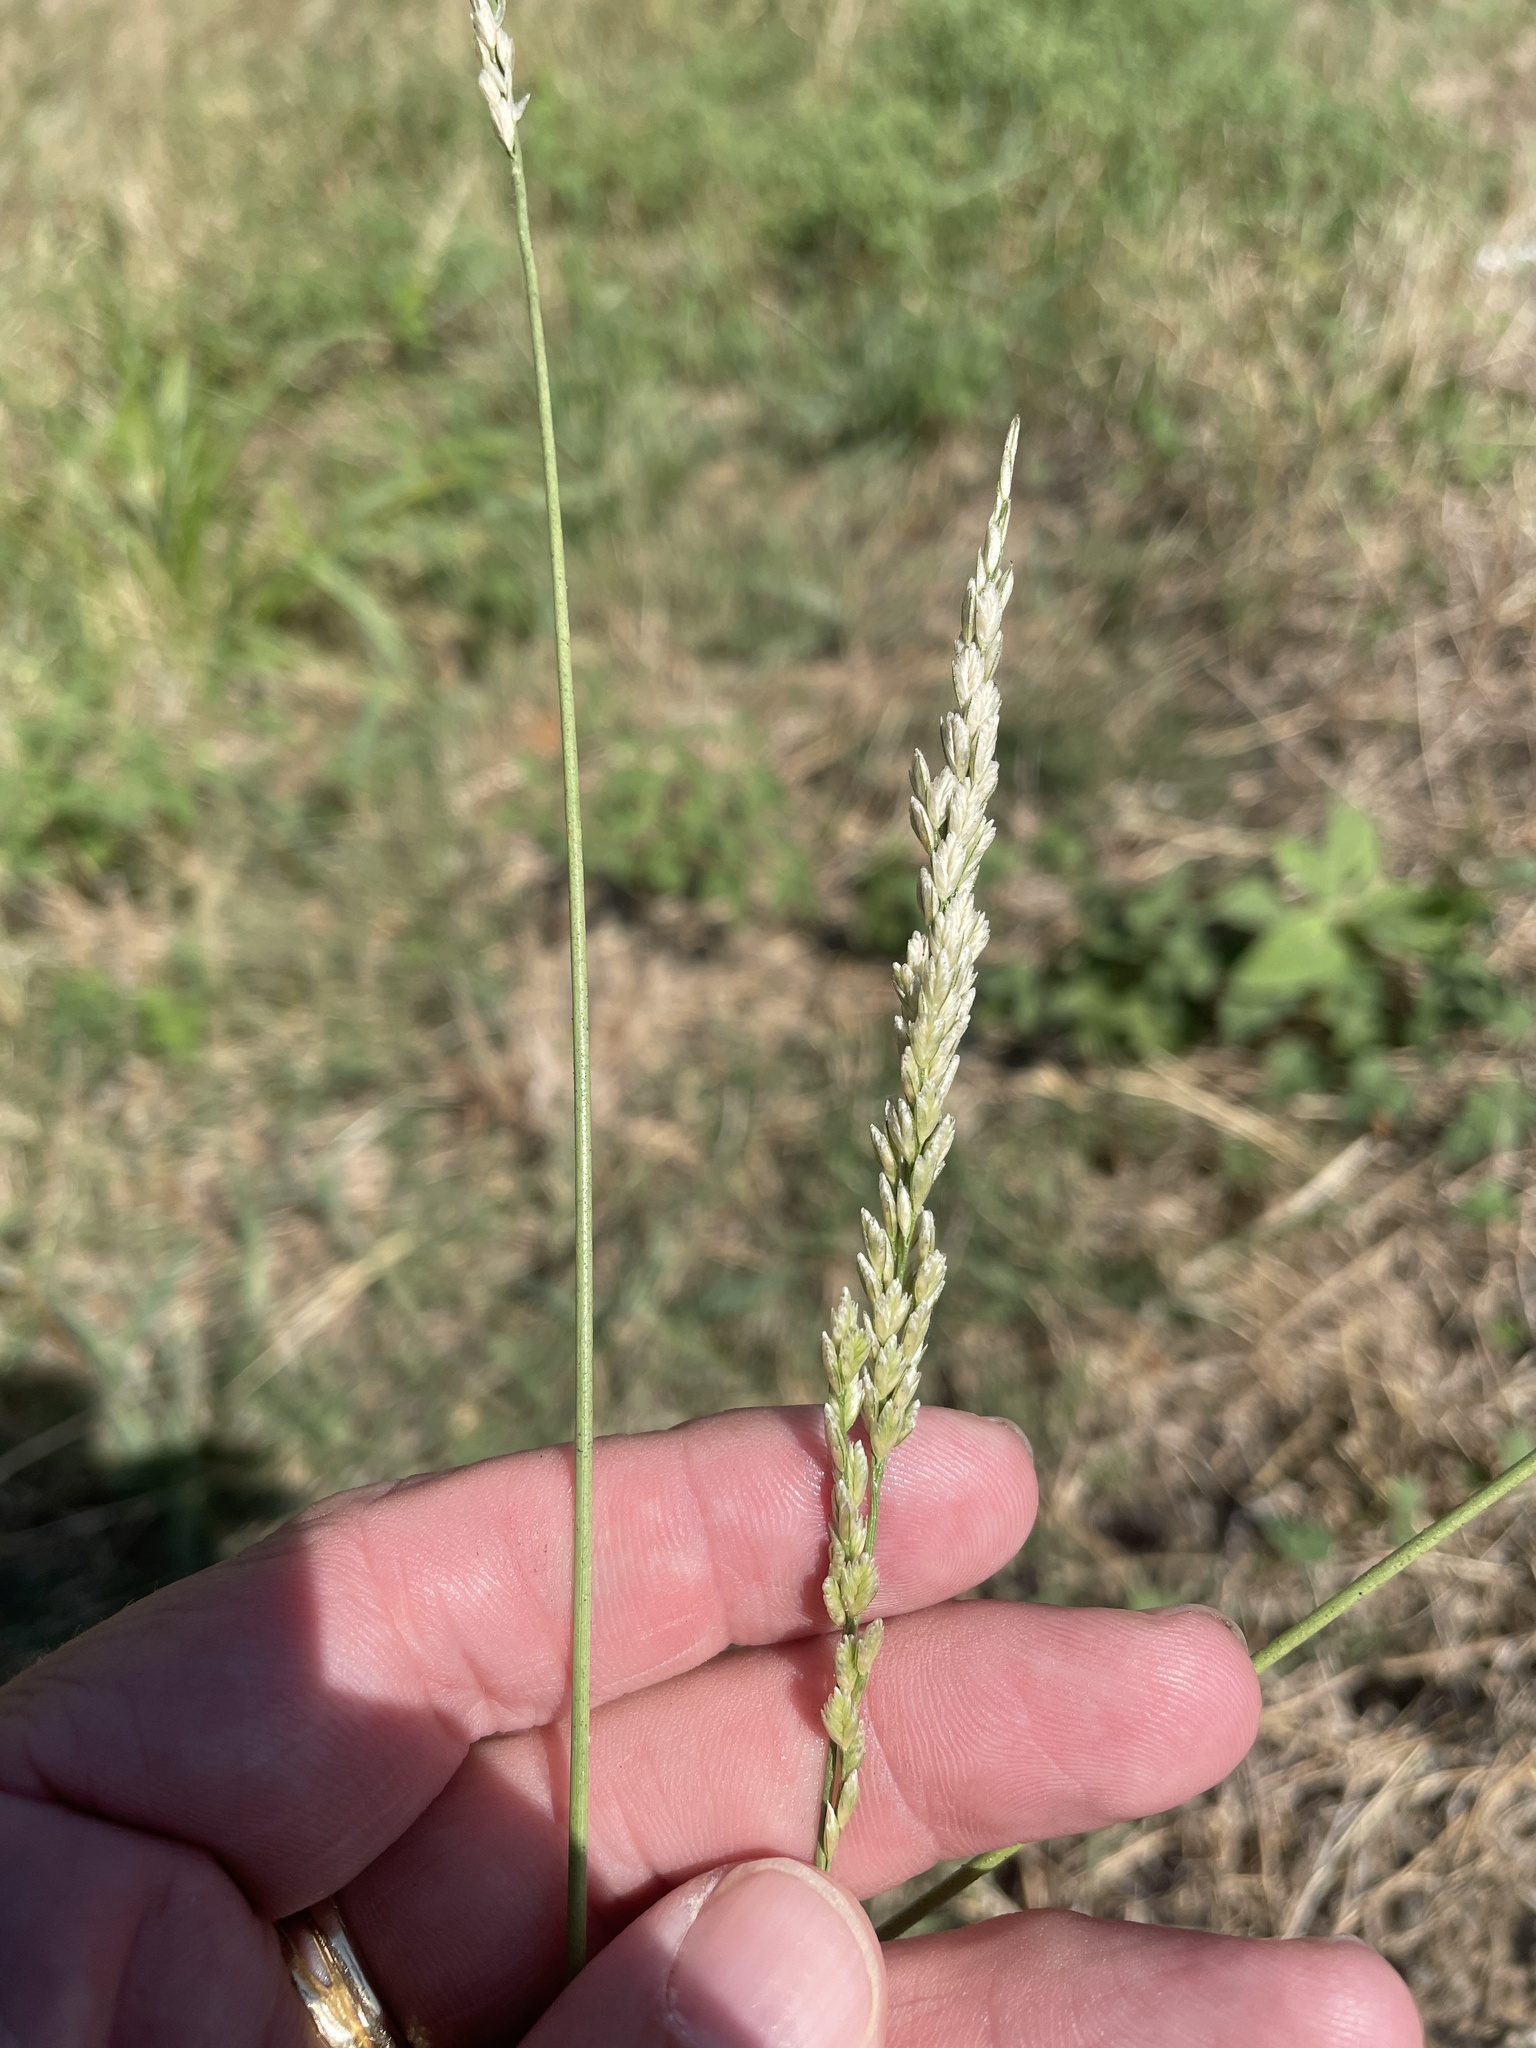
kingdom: Plantae
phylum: Tracheophyta
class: Liliopsida
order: Poales
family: Poaceae
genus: Tridens
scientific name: Tridens albescens
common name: White tridens
